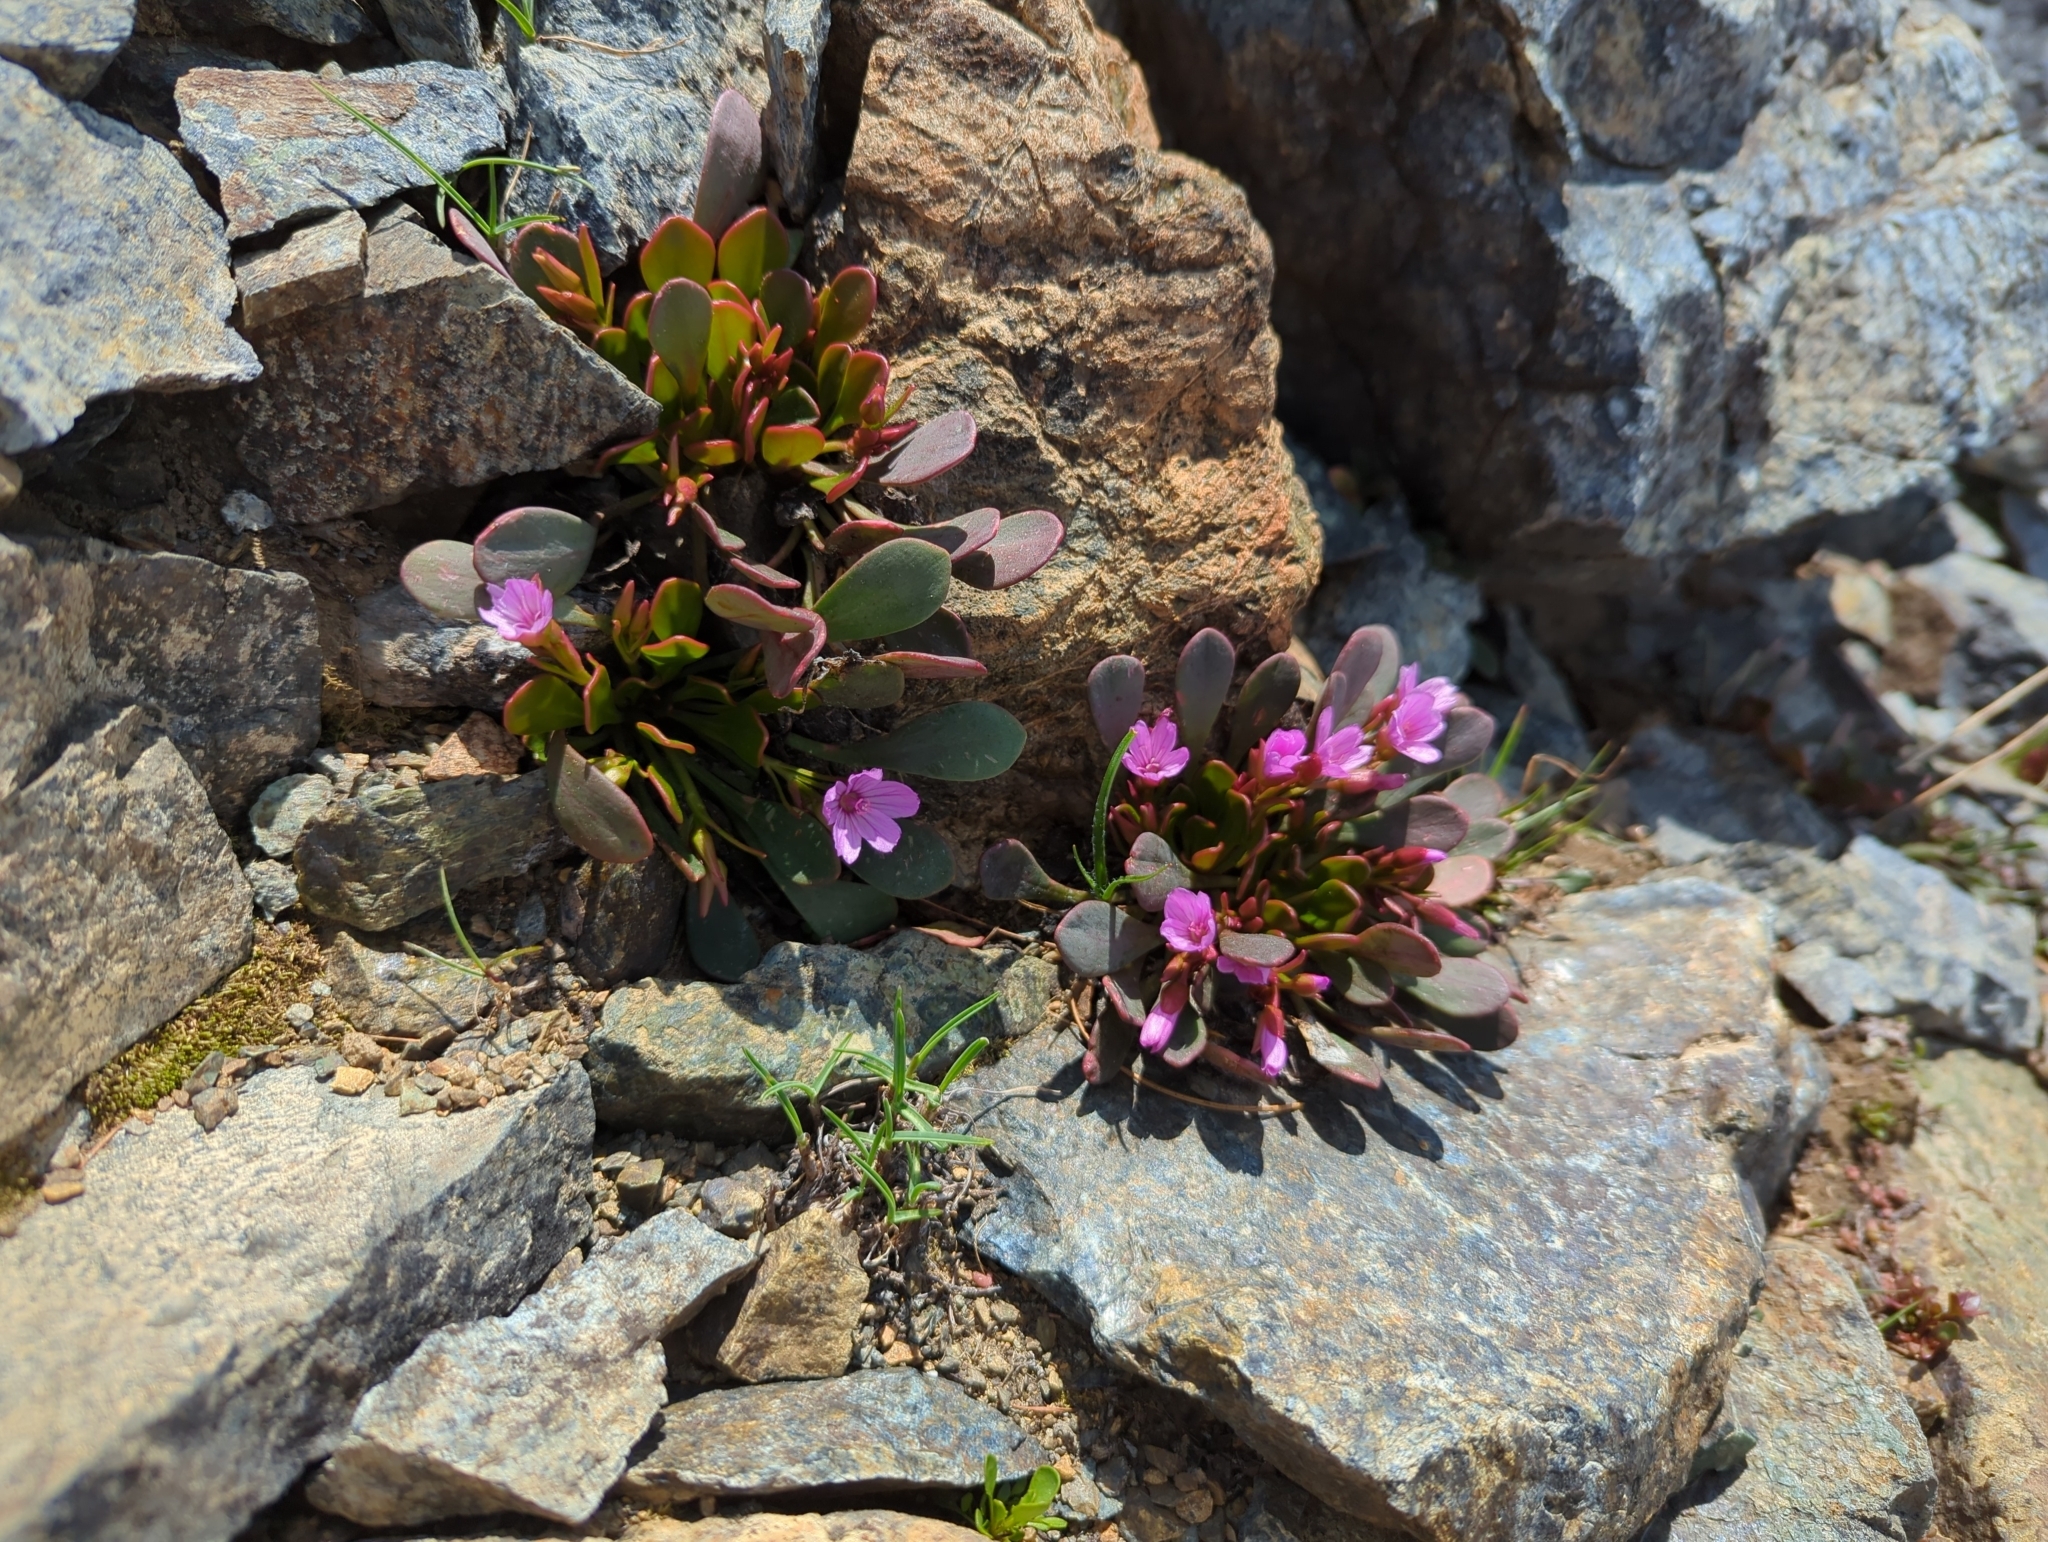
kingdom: Plantae
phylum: Tracheophyta
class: Magnoliopsida
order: Caryophyllales
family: Montiaceae
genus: Claytonia
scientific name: Claytonia megarhiza
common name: Alpine spring beauty
